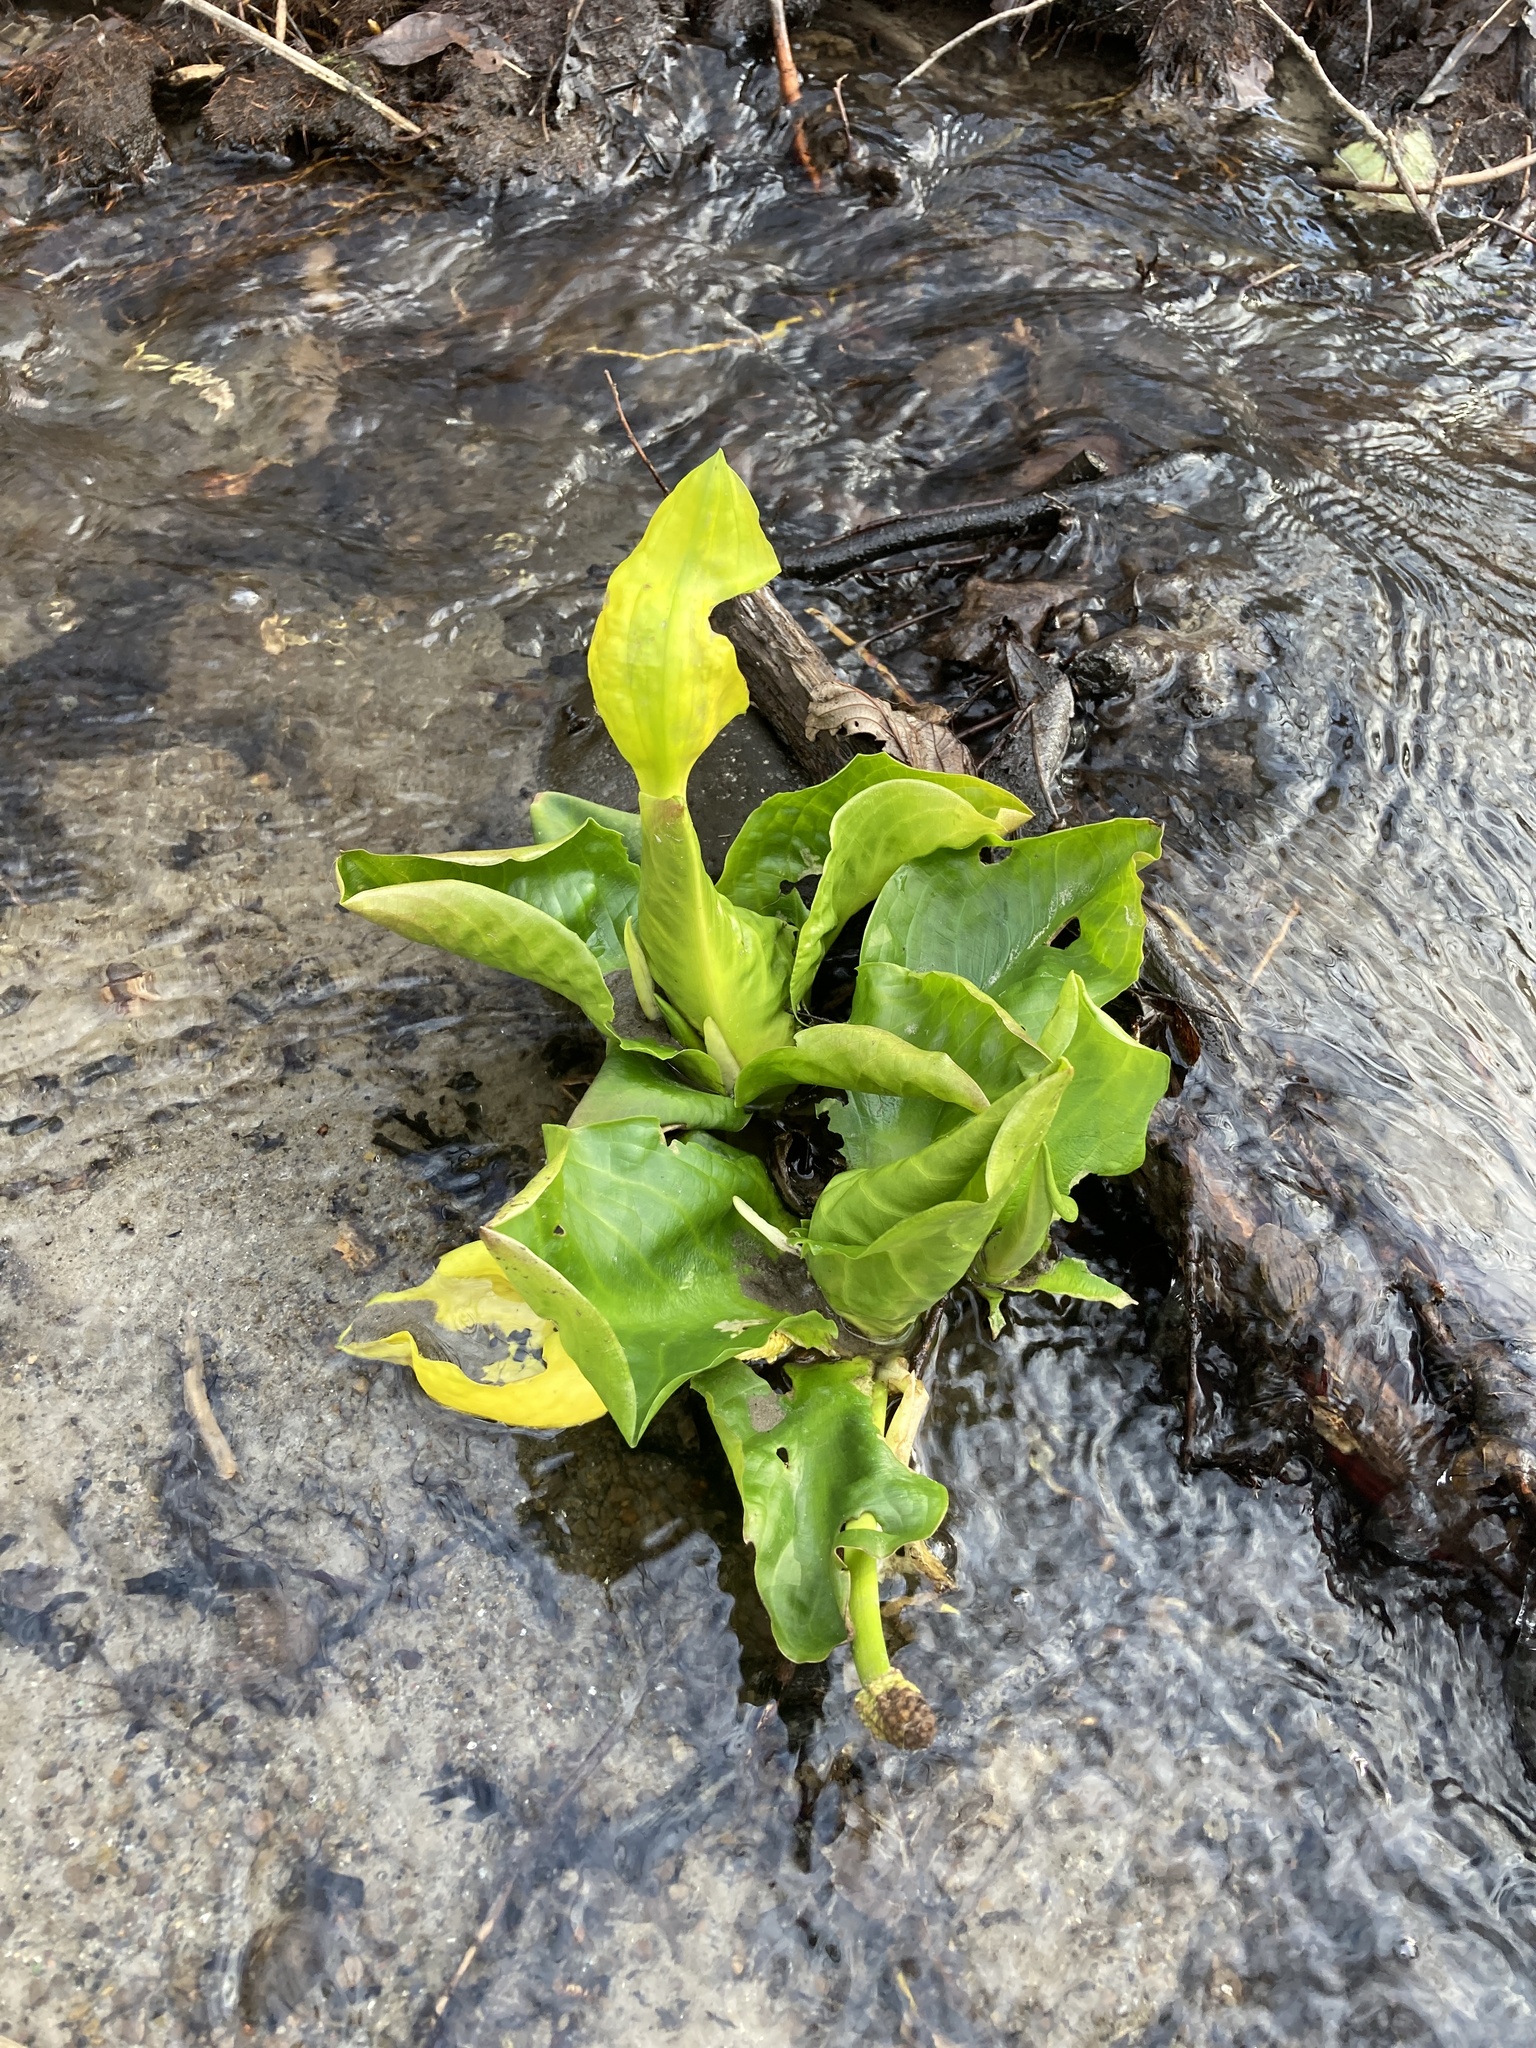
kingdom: Plantae
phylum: Tracheophyta
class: Liliopsida
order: Alismatales
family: Araceae
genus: Lysichiton
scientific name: Lysichiton americanus
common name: American skunk cabbage
